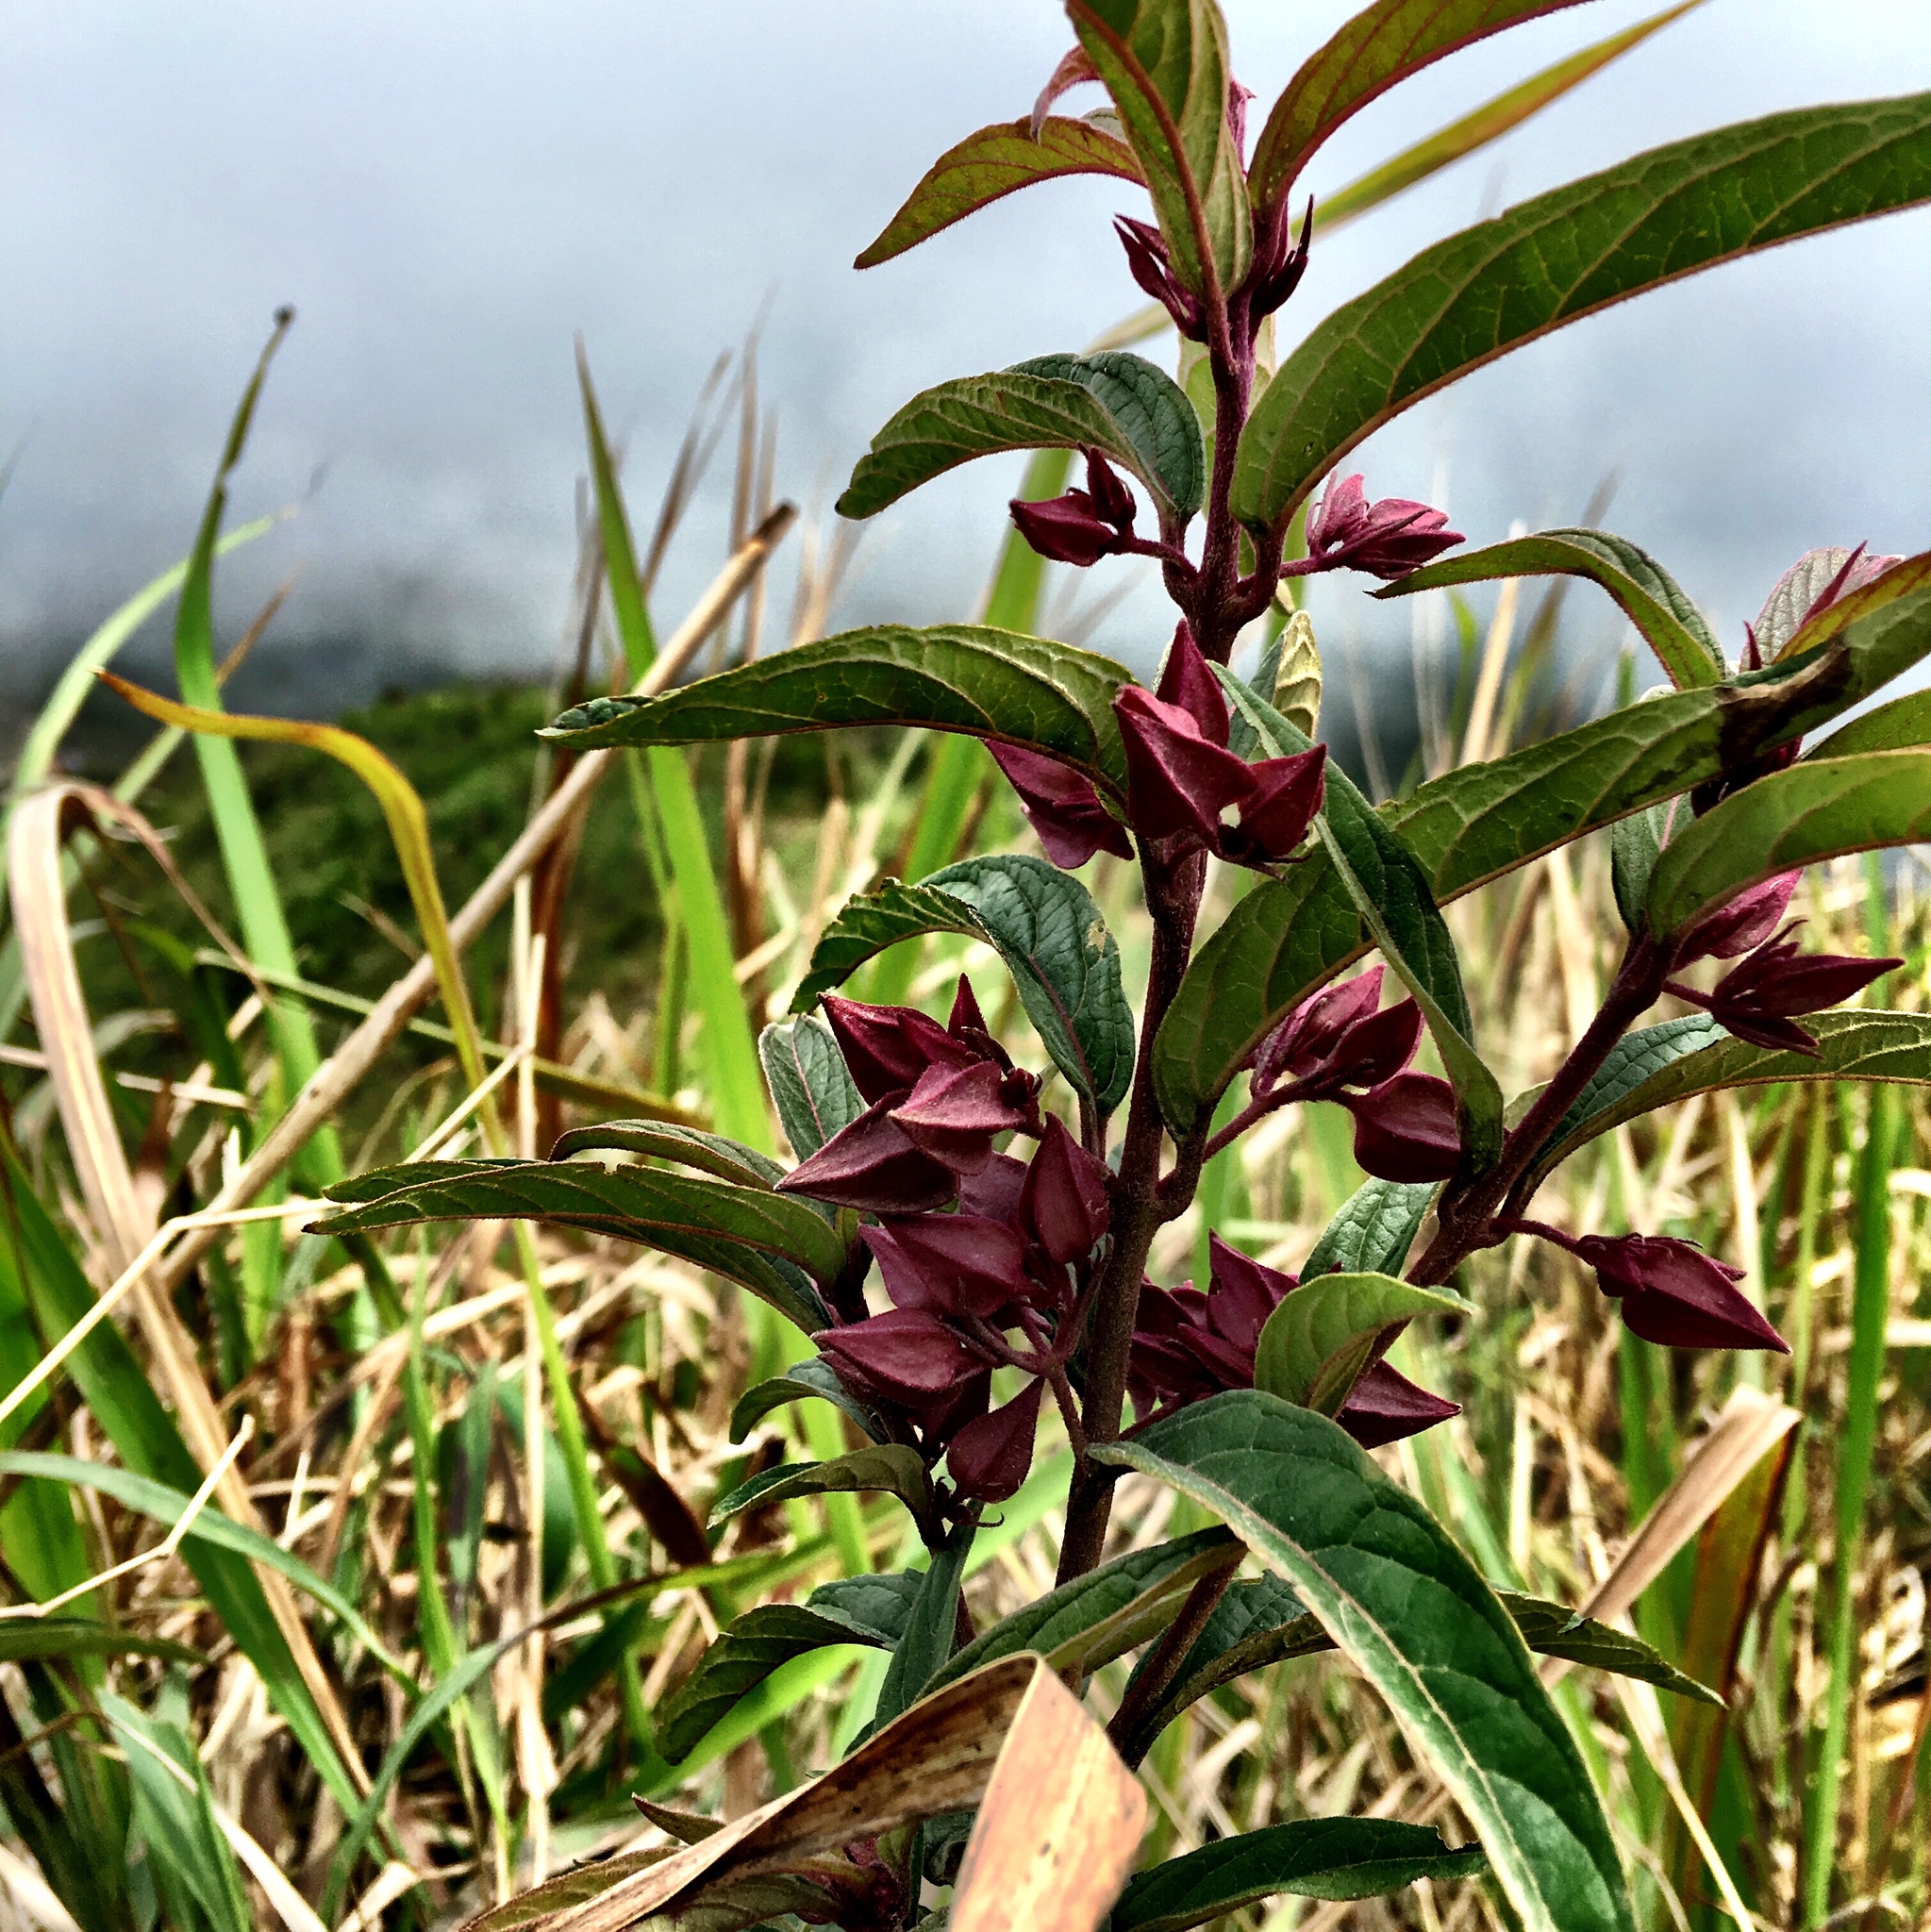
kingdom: Plantae
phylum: Tracheophyta
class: Magnoliopsida
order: Lamiales
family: Lamiaceae
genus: Clerodendrum
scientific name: Clerodendrum fortunatum
